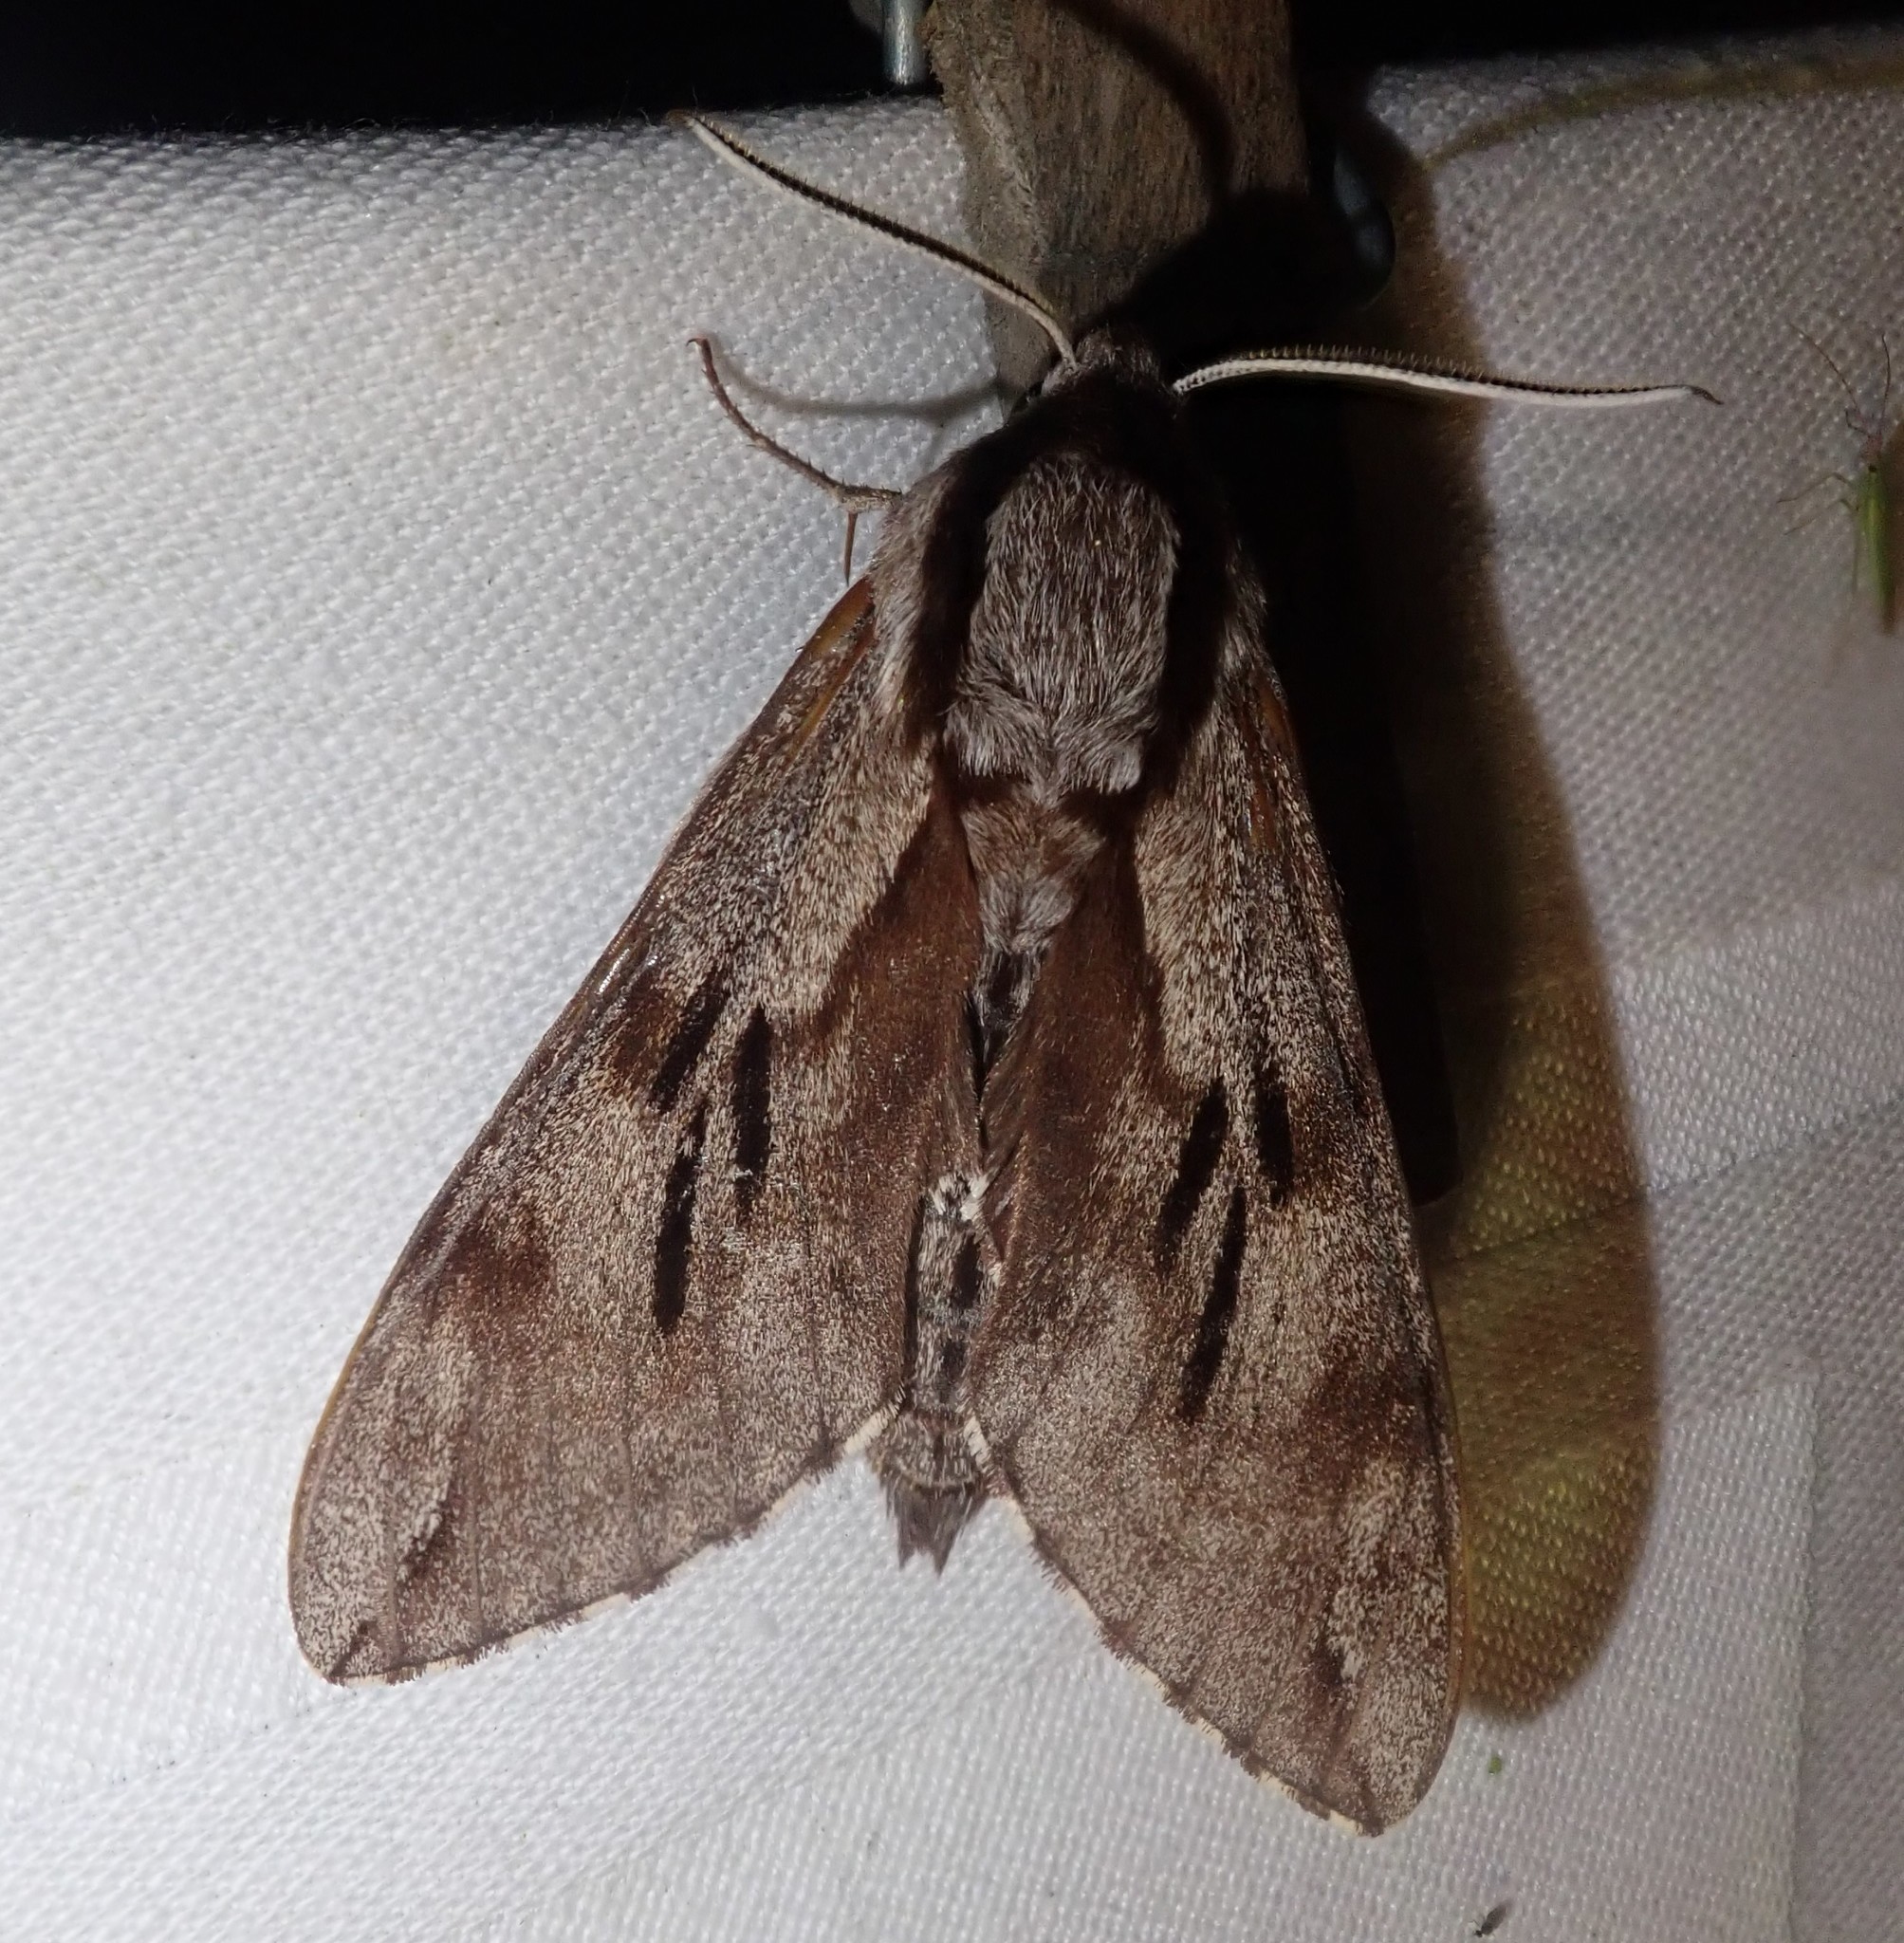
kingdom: Animalia
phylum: Arthropoda
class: Insecta
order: Lepidoptera
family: Sphingidae
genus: Sphinx
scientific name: Sphinx pinastri
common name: Pine hawk-moth
